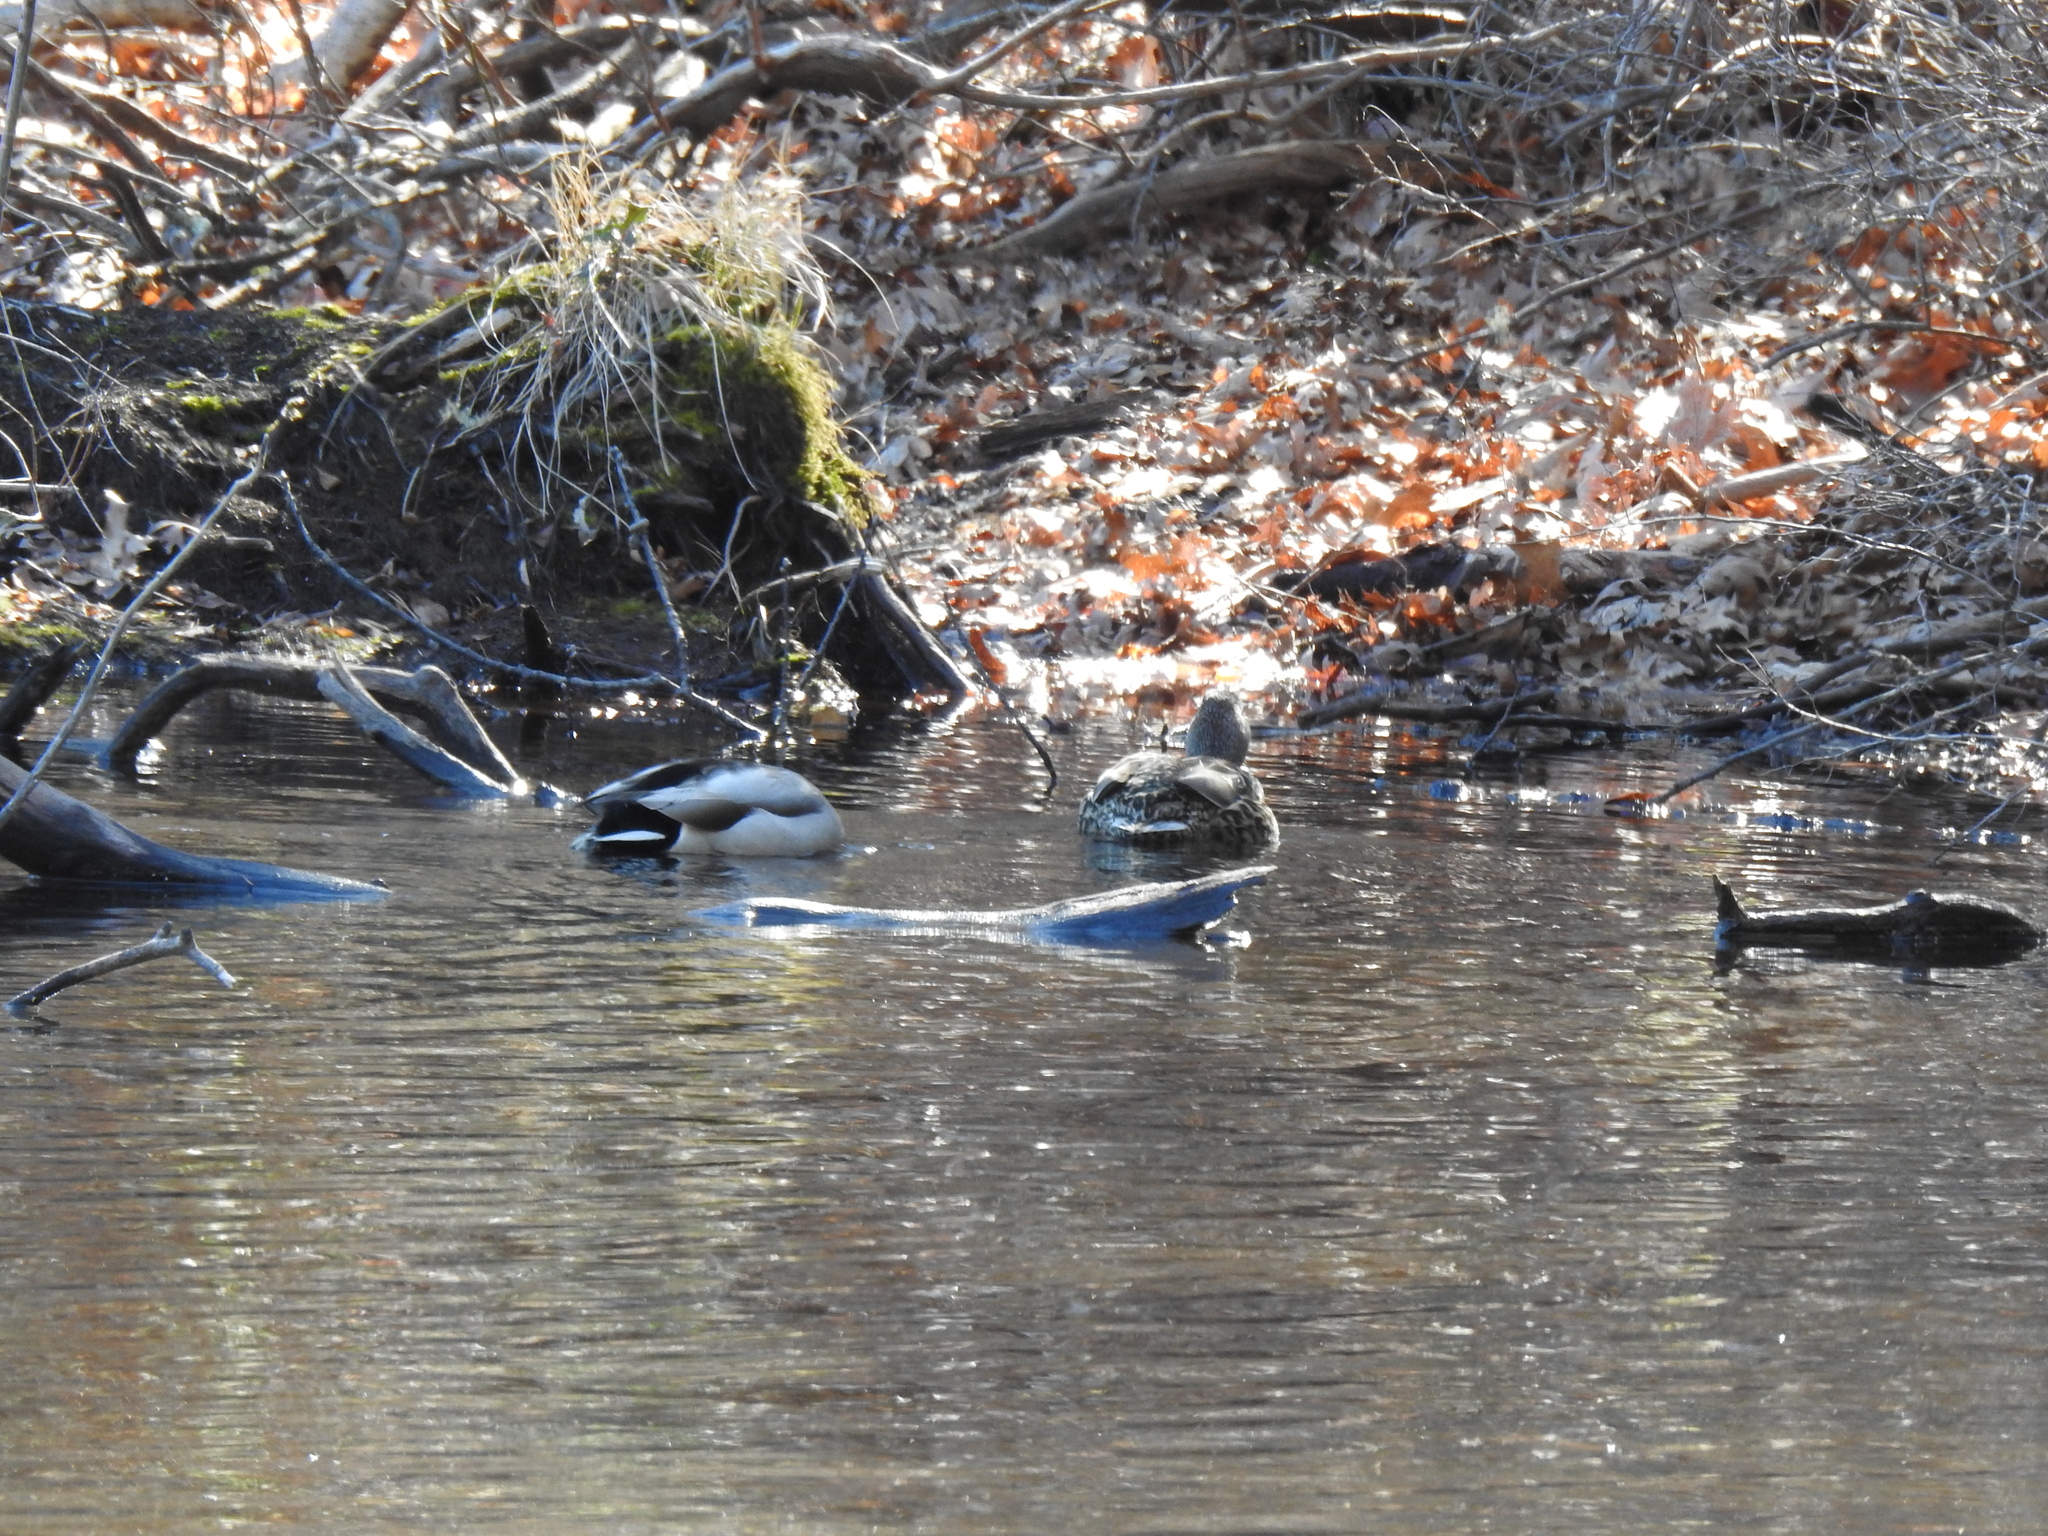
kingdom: Animalia
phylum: Chordata
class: Aves
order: Anseriformes
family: Anatidae
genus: Anas
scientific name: Anas platyrhynchos
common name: Mallard
